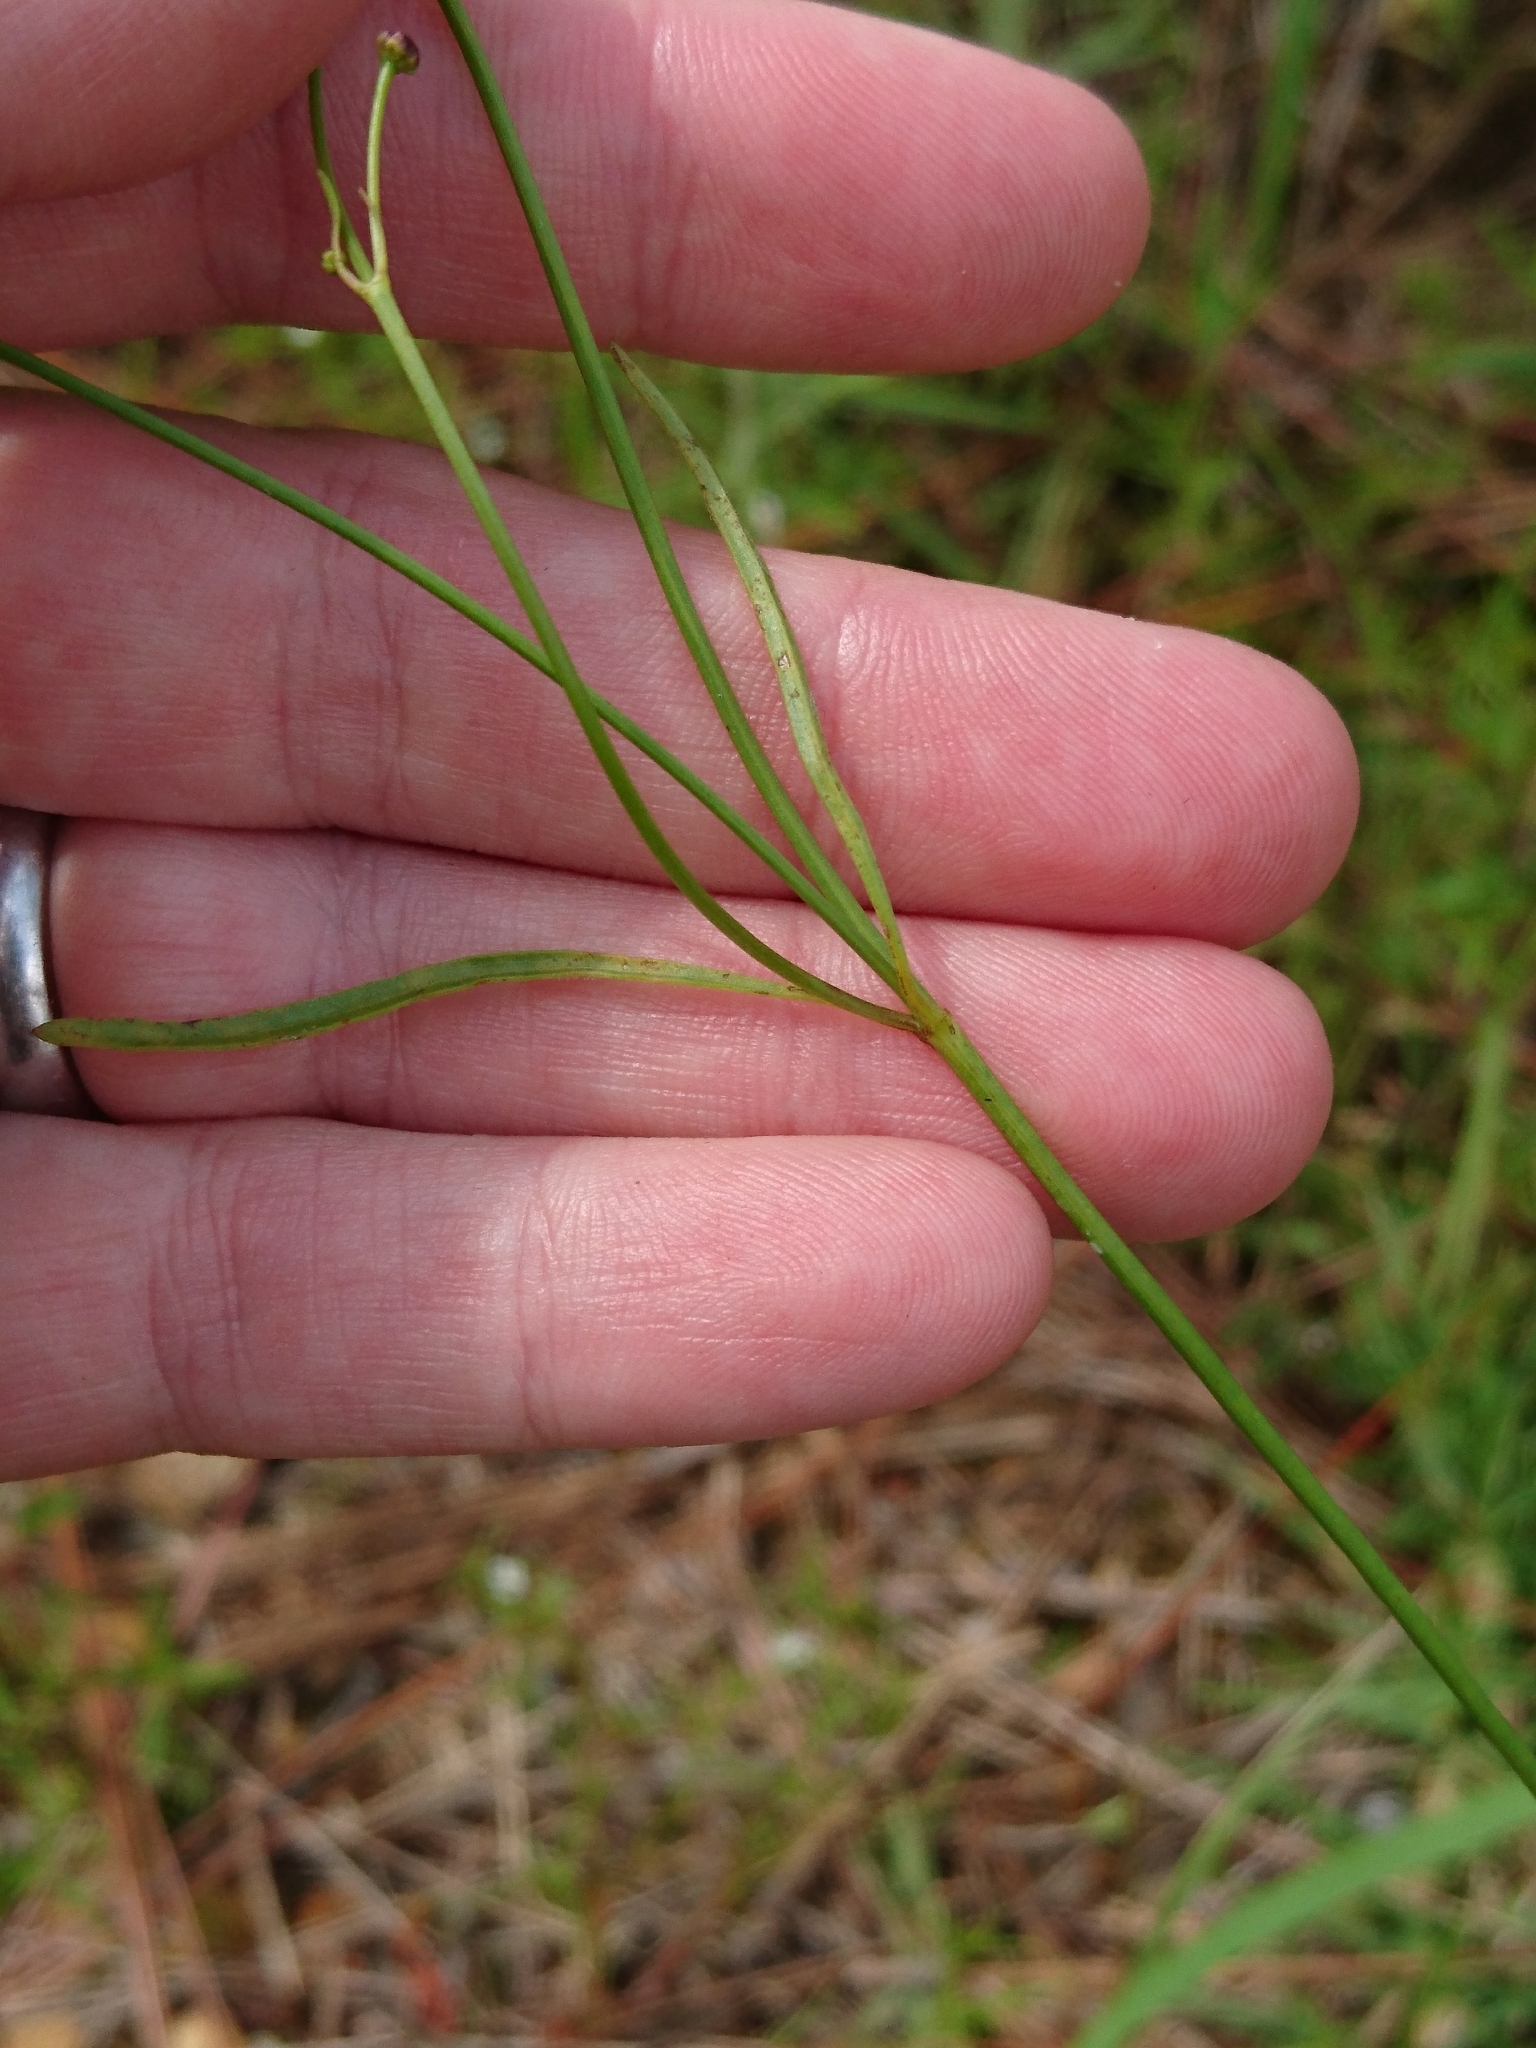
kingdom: Plantae
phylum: Tracheophyta
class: Magnoliopsida
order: Asterales
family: Asteraceae
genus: Coreopsis
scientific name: Coreopsis tinctoria
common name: Garden tickseed
